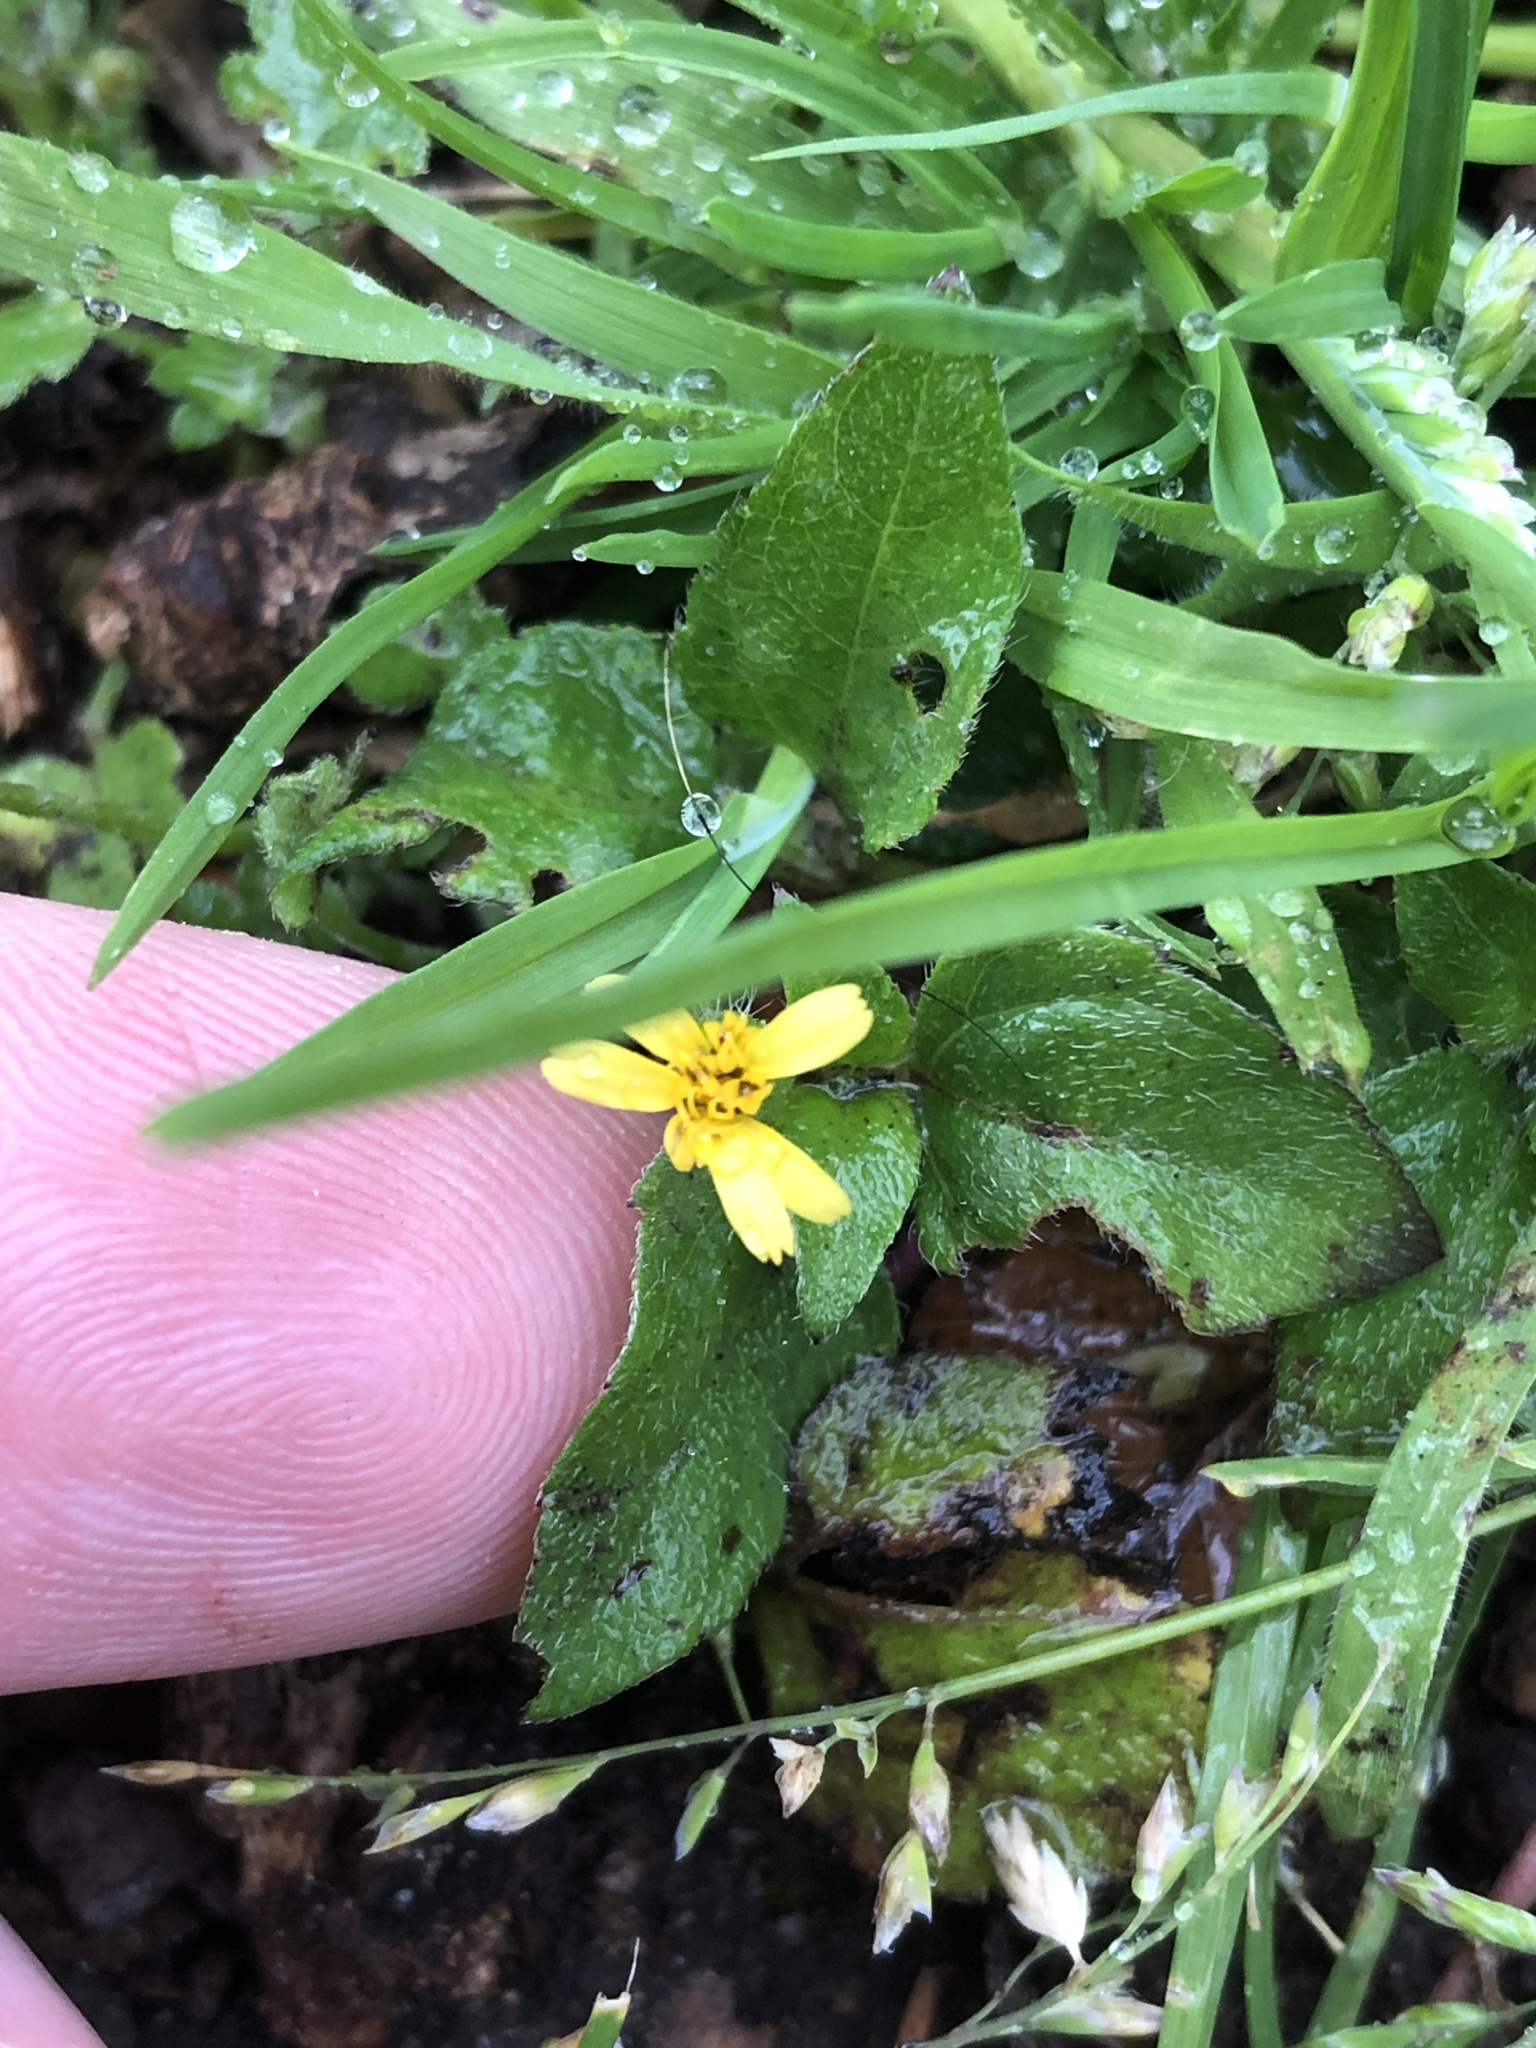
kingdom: Plantae
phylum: Tracheophyta
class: Magnoliopsida
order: Asterales
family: Asteraceae
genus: Calyptocarpus
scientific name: Calyptocarpus vialis
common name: Straggler daisy
